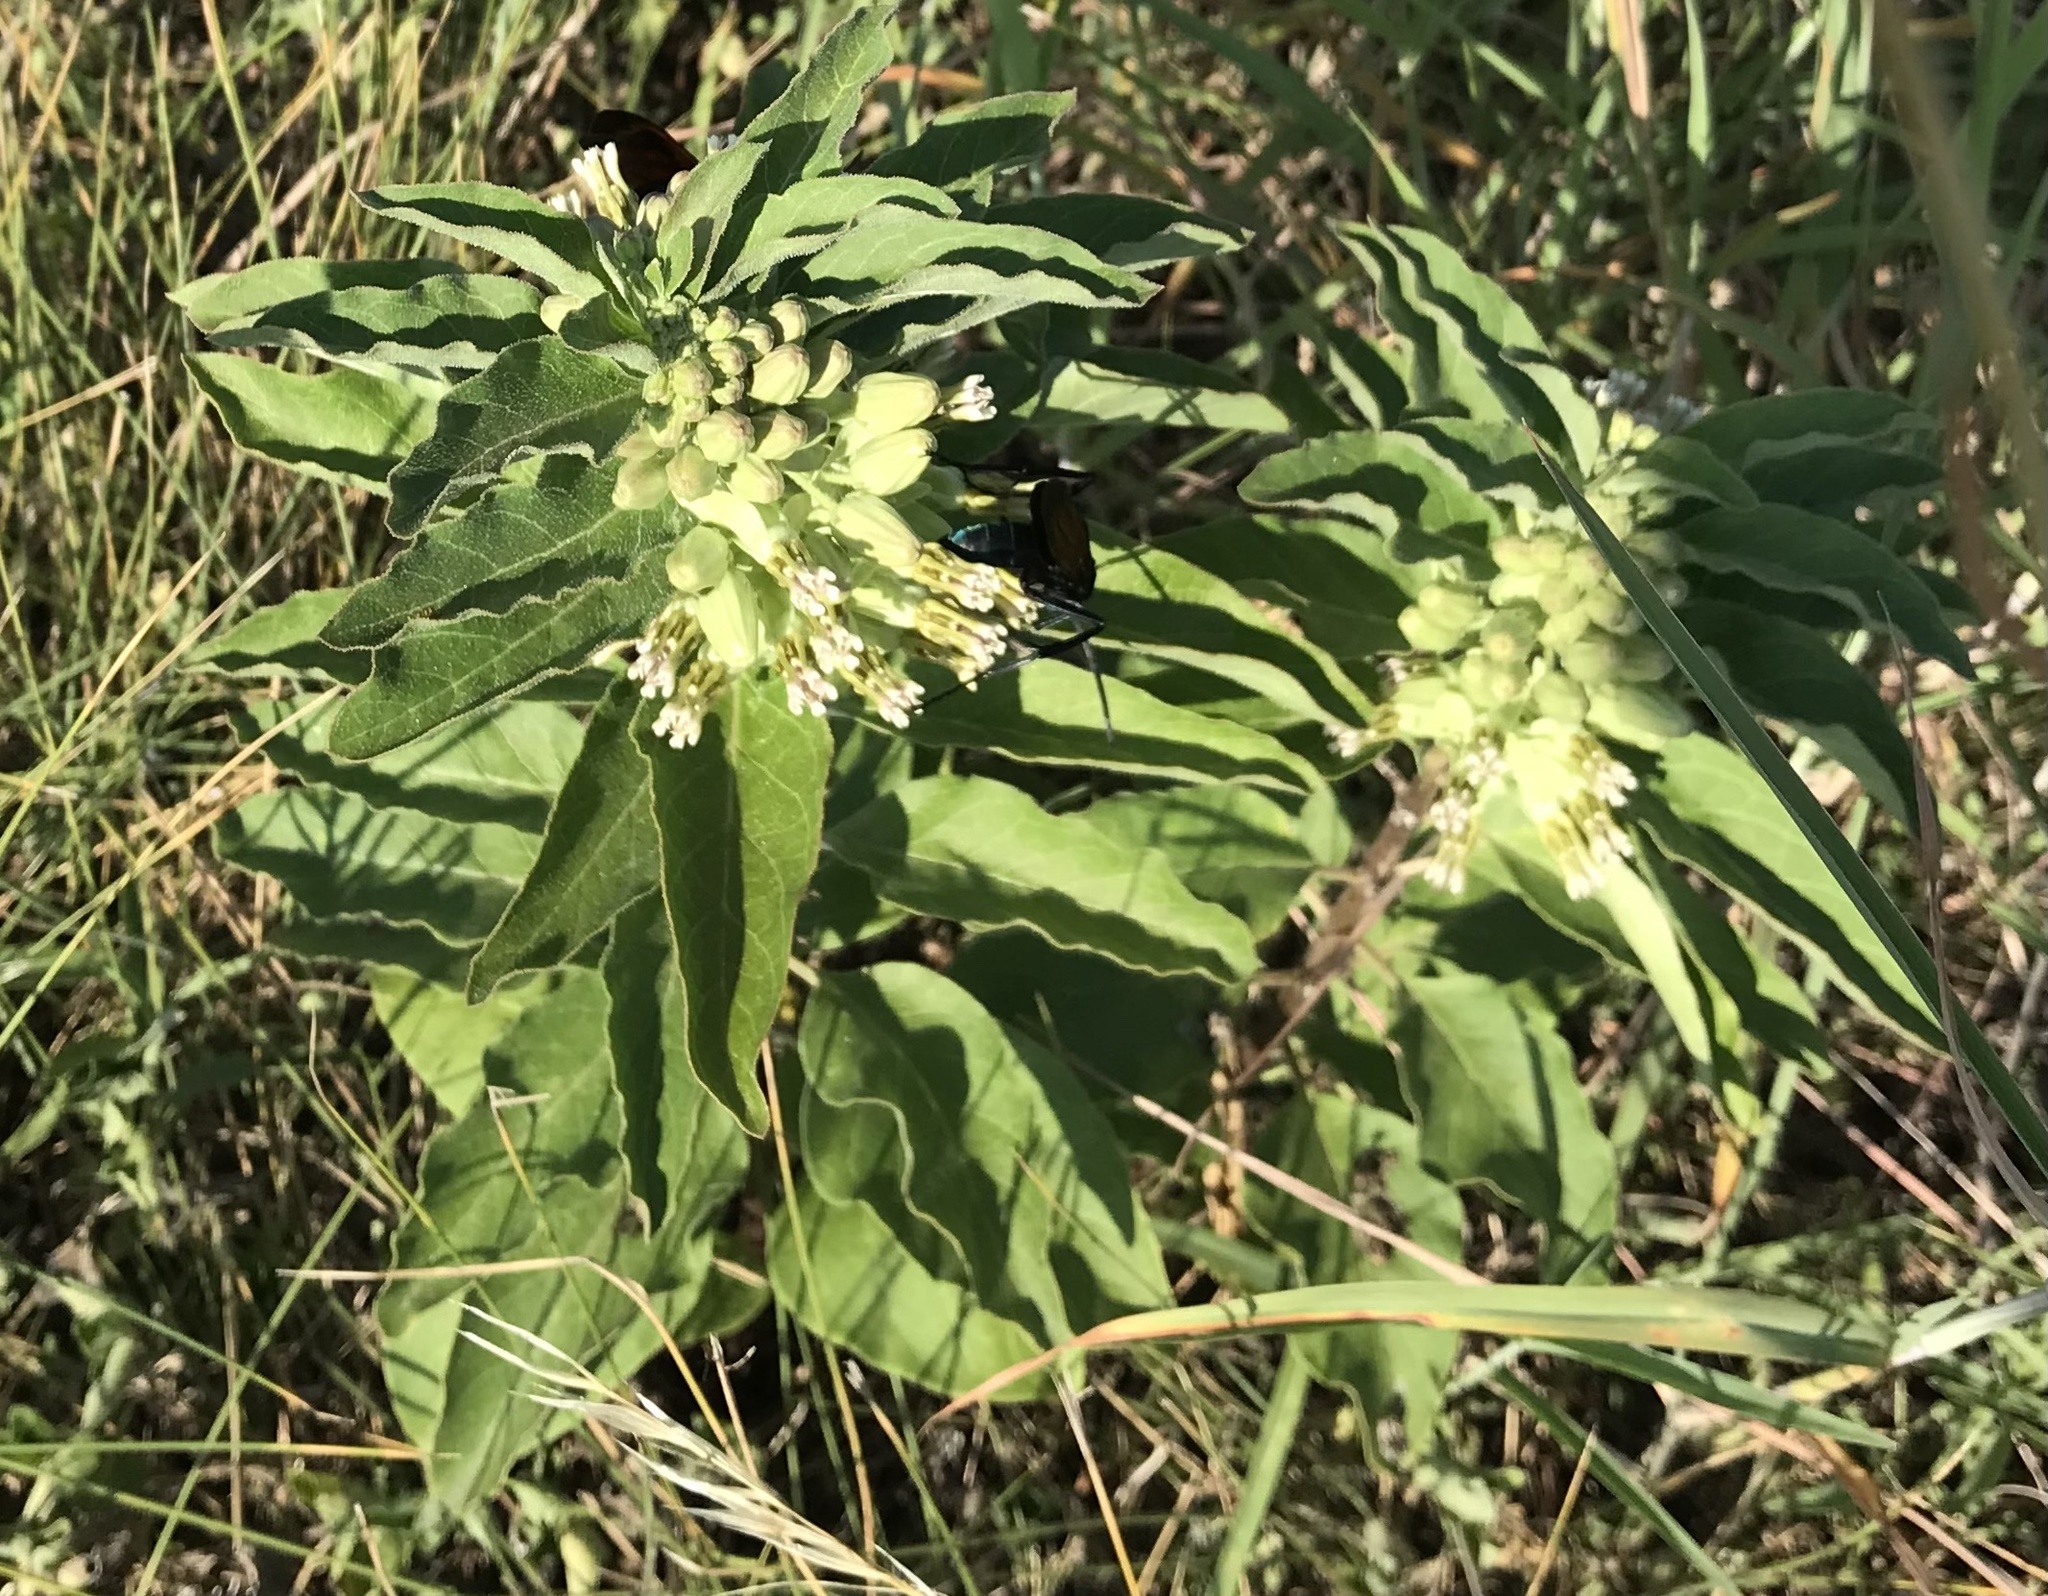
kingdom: Plantae
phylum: Tracheophyta
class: Magnoliopsida
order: Gentianales
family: Apocynaceae
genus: Asclepias
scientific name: Asclepias oenotheroides
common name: Zizotes milkweed
